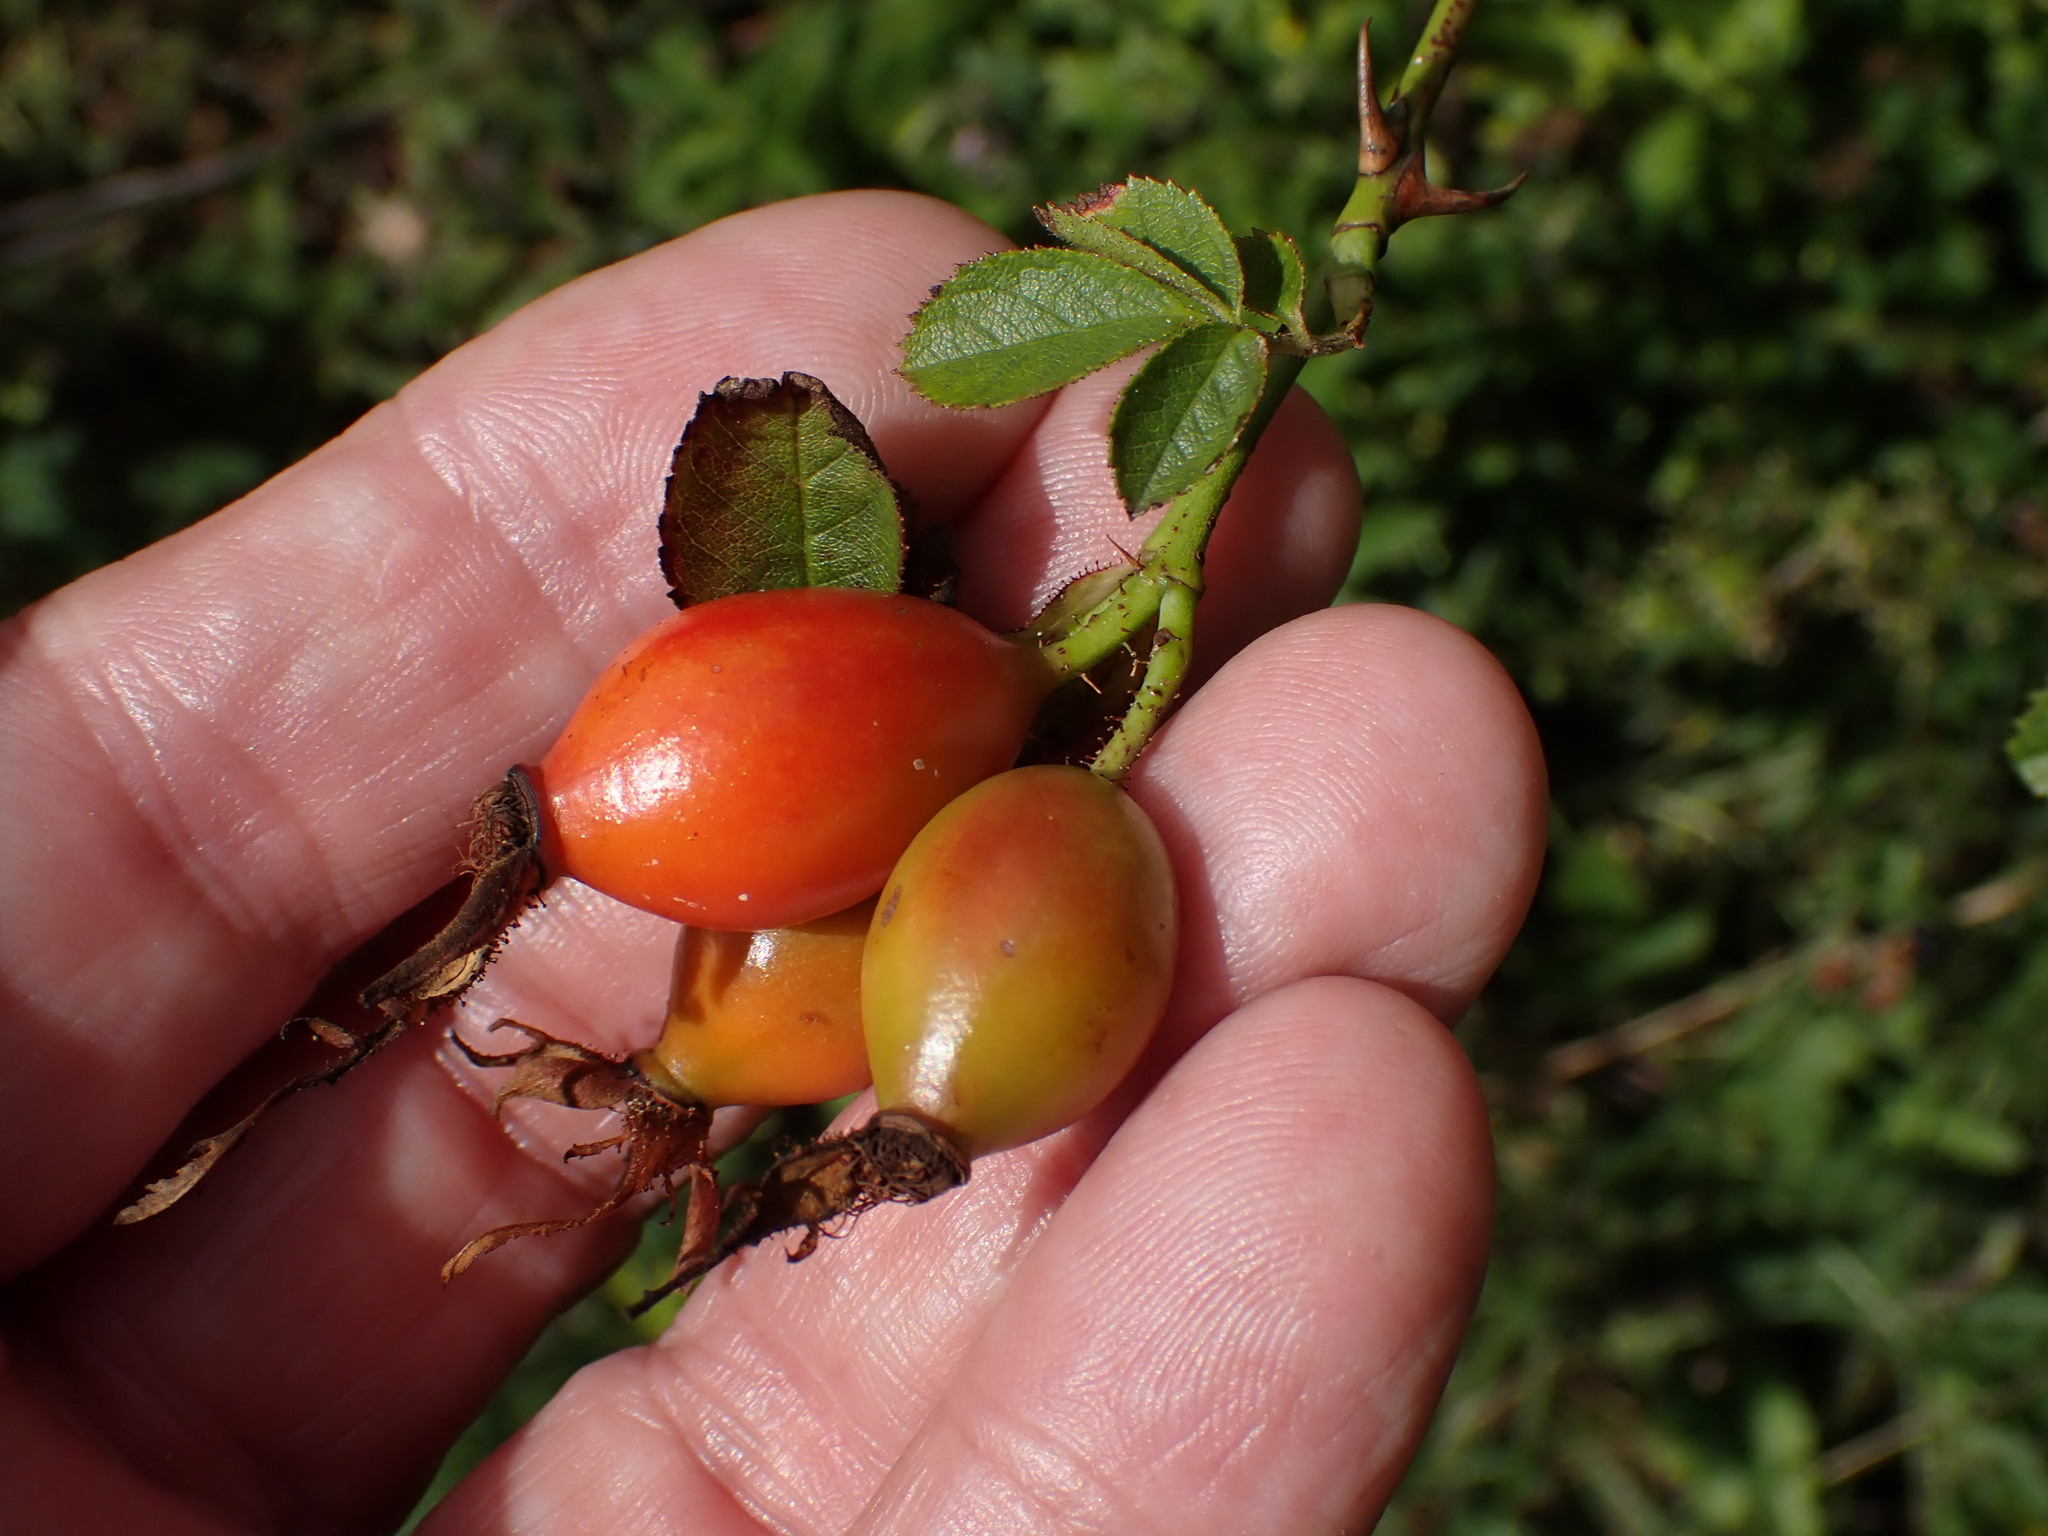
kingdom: Plantae
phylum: Tracheophyta
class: Magnoliopsida
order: Rosales
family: Rosaceae
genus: Rosa
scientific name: Rosa micrantha
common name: Small-flowered sweet-briar
